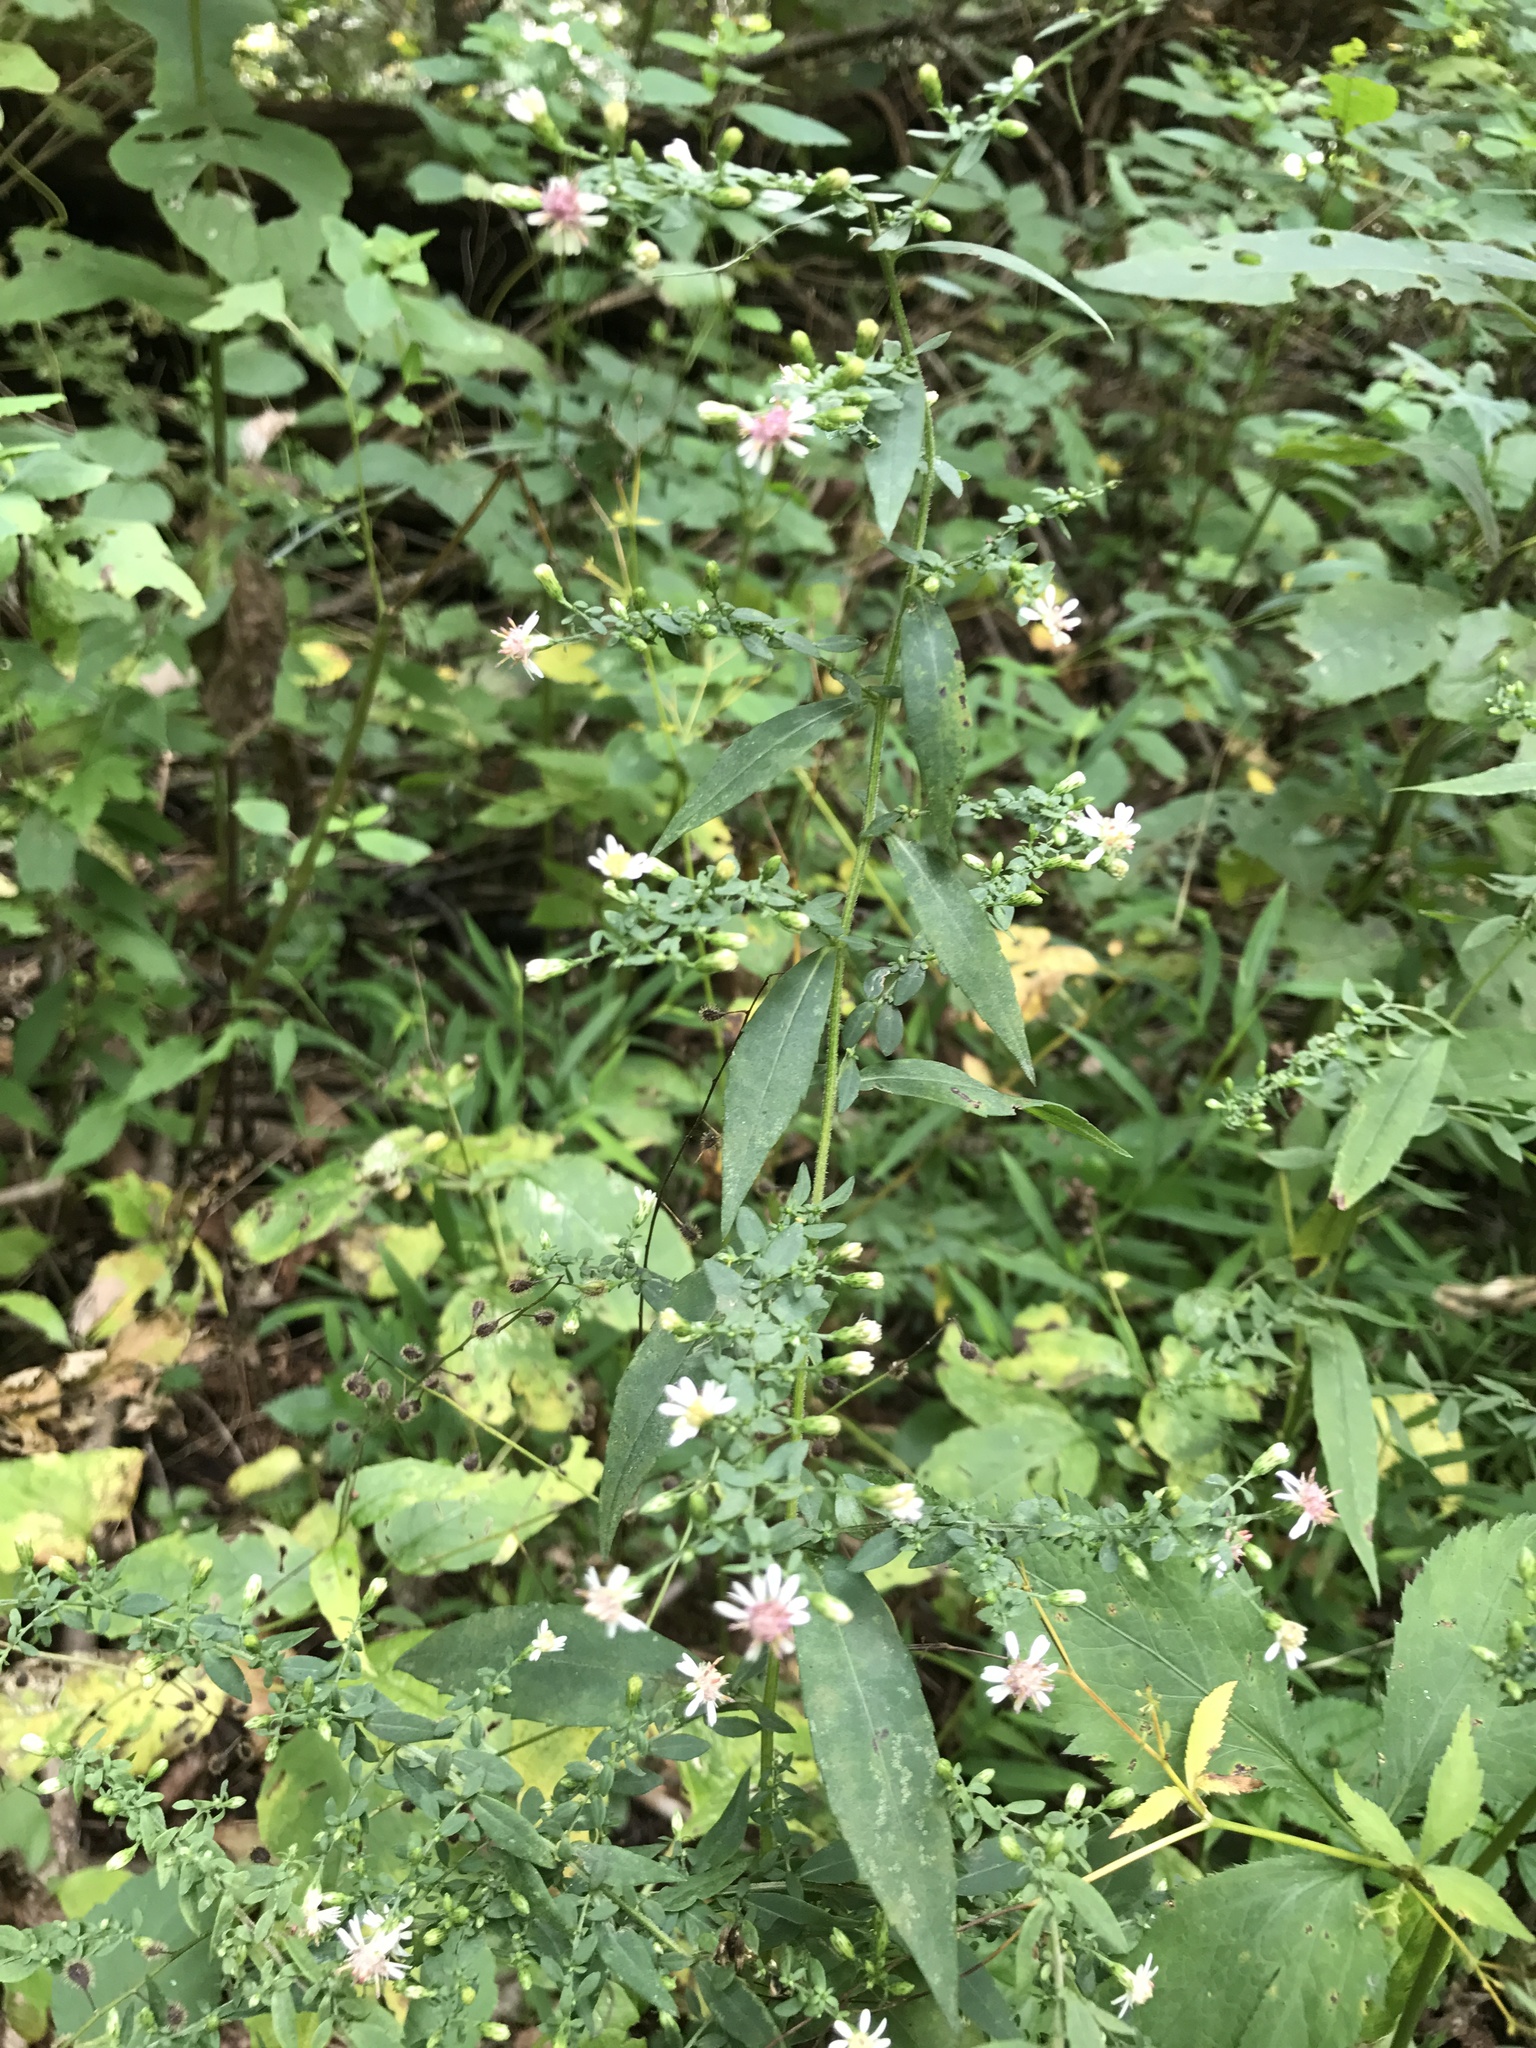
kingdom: Plantae
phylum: Tracheophyta
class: Magnoliopsida
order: Asterales
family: Asteraceae
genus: Symphyotrichum
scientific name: Symphyotrichum lateriflorum
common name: Calico aster
